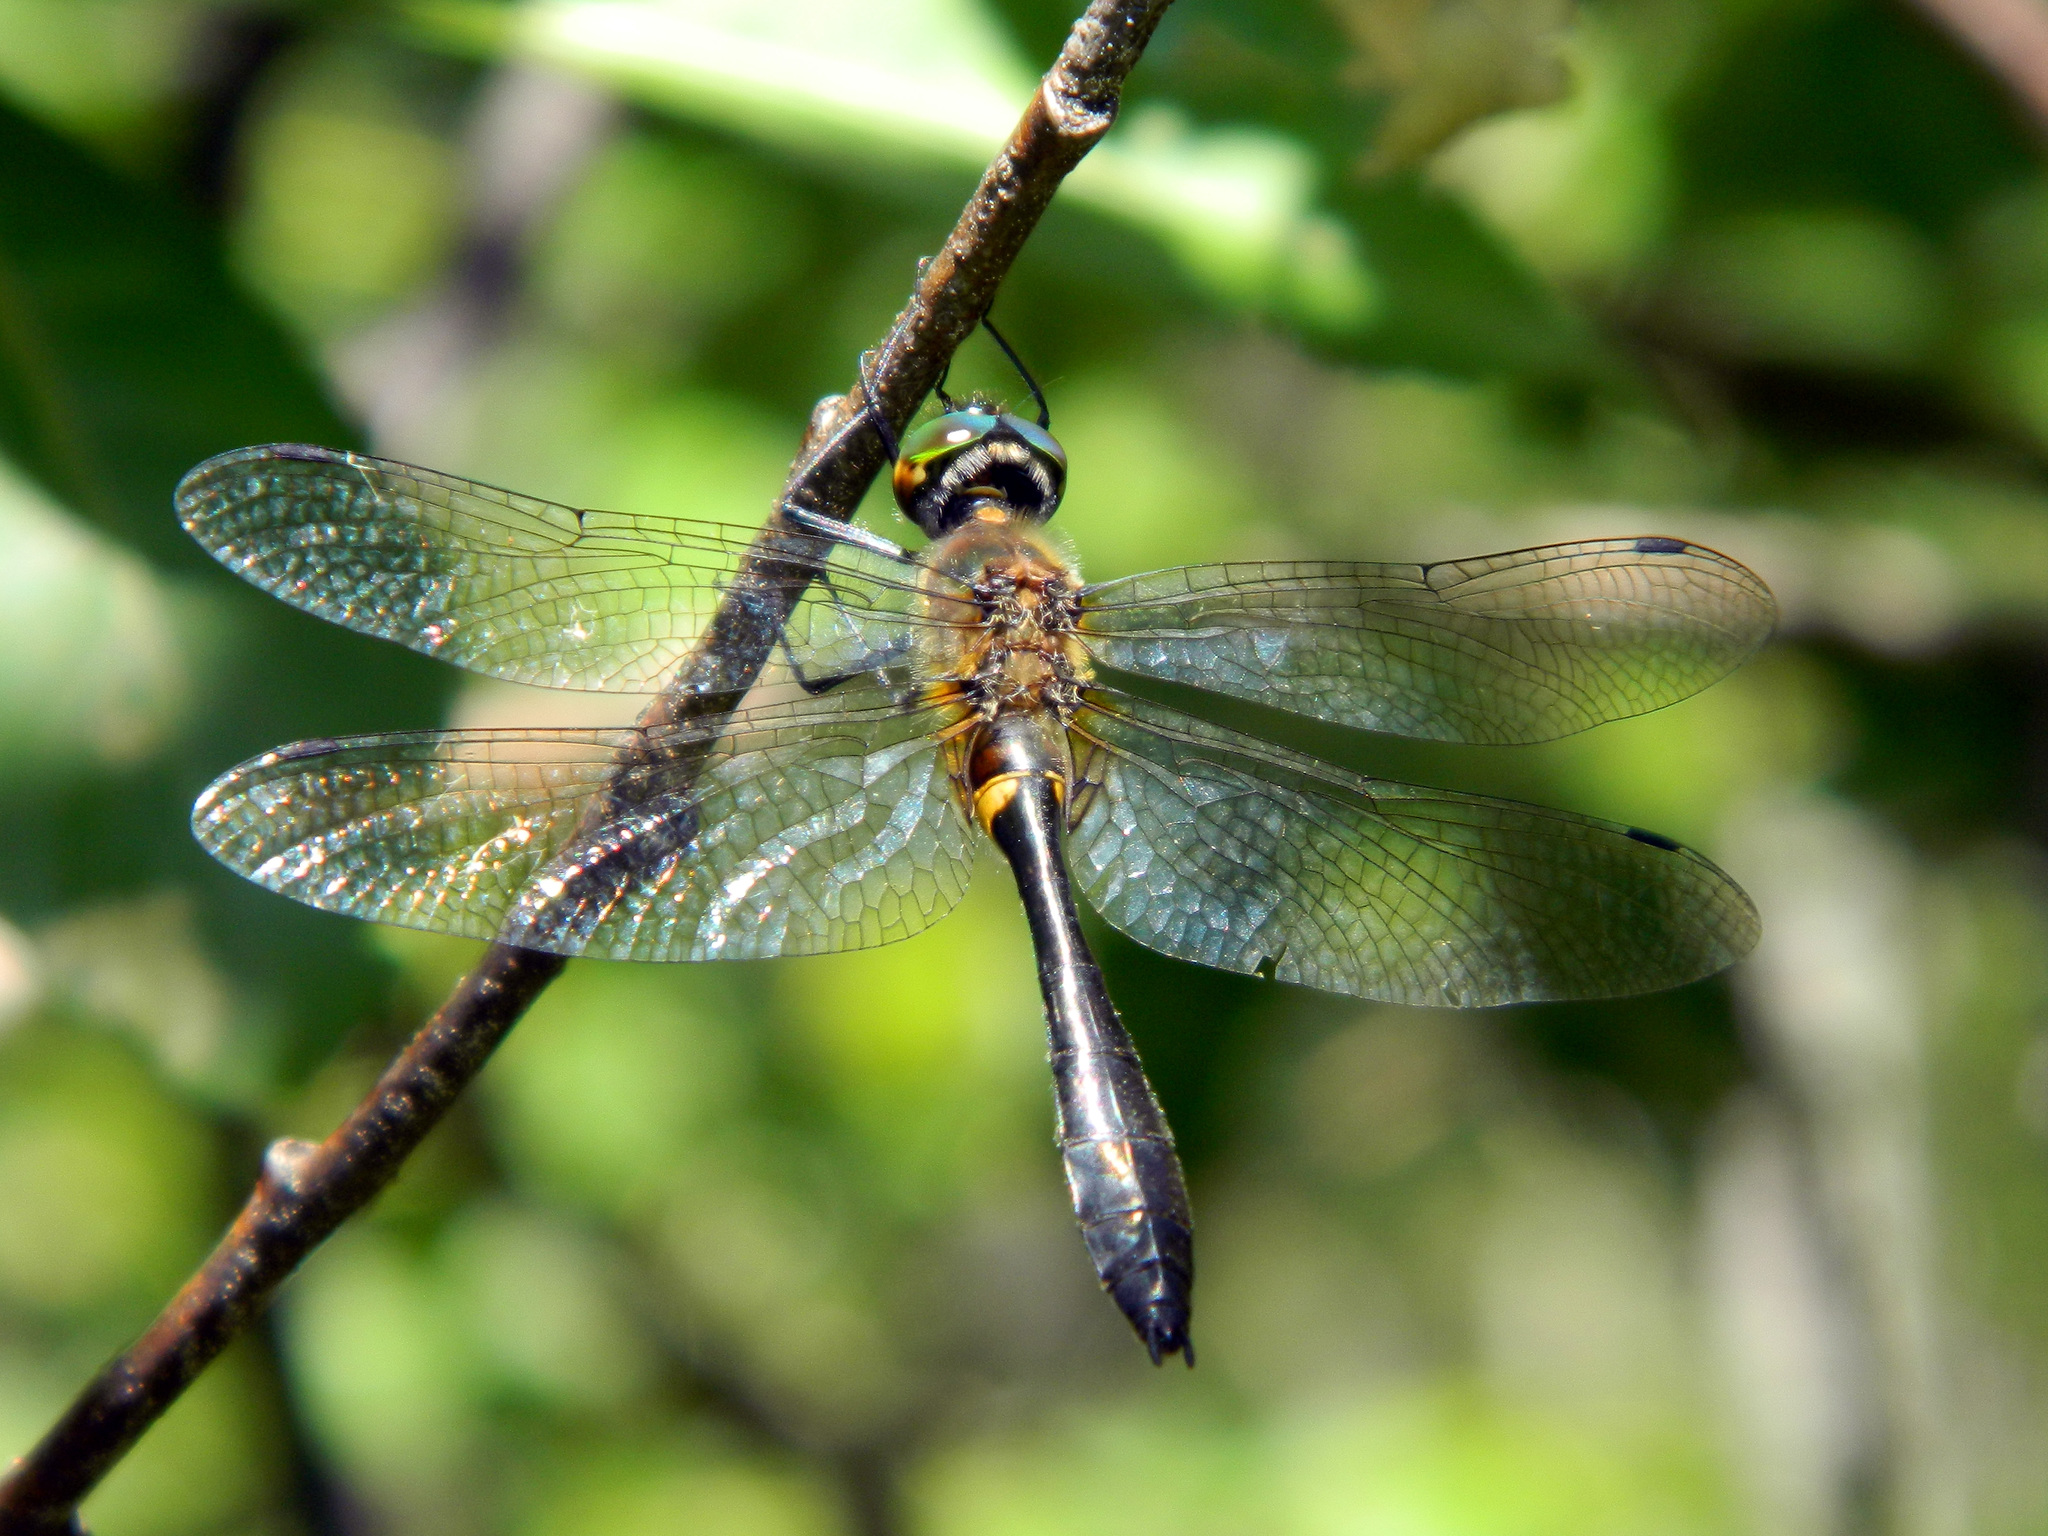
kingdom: Animalia
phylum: Arthropoda
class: Insecta
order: Odonata
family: Corduliidae
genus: Dorocordulia
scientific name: Dorocordulia libera
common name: Racket-tailed emerald
